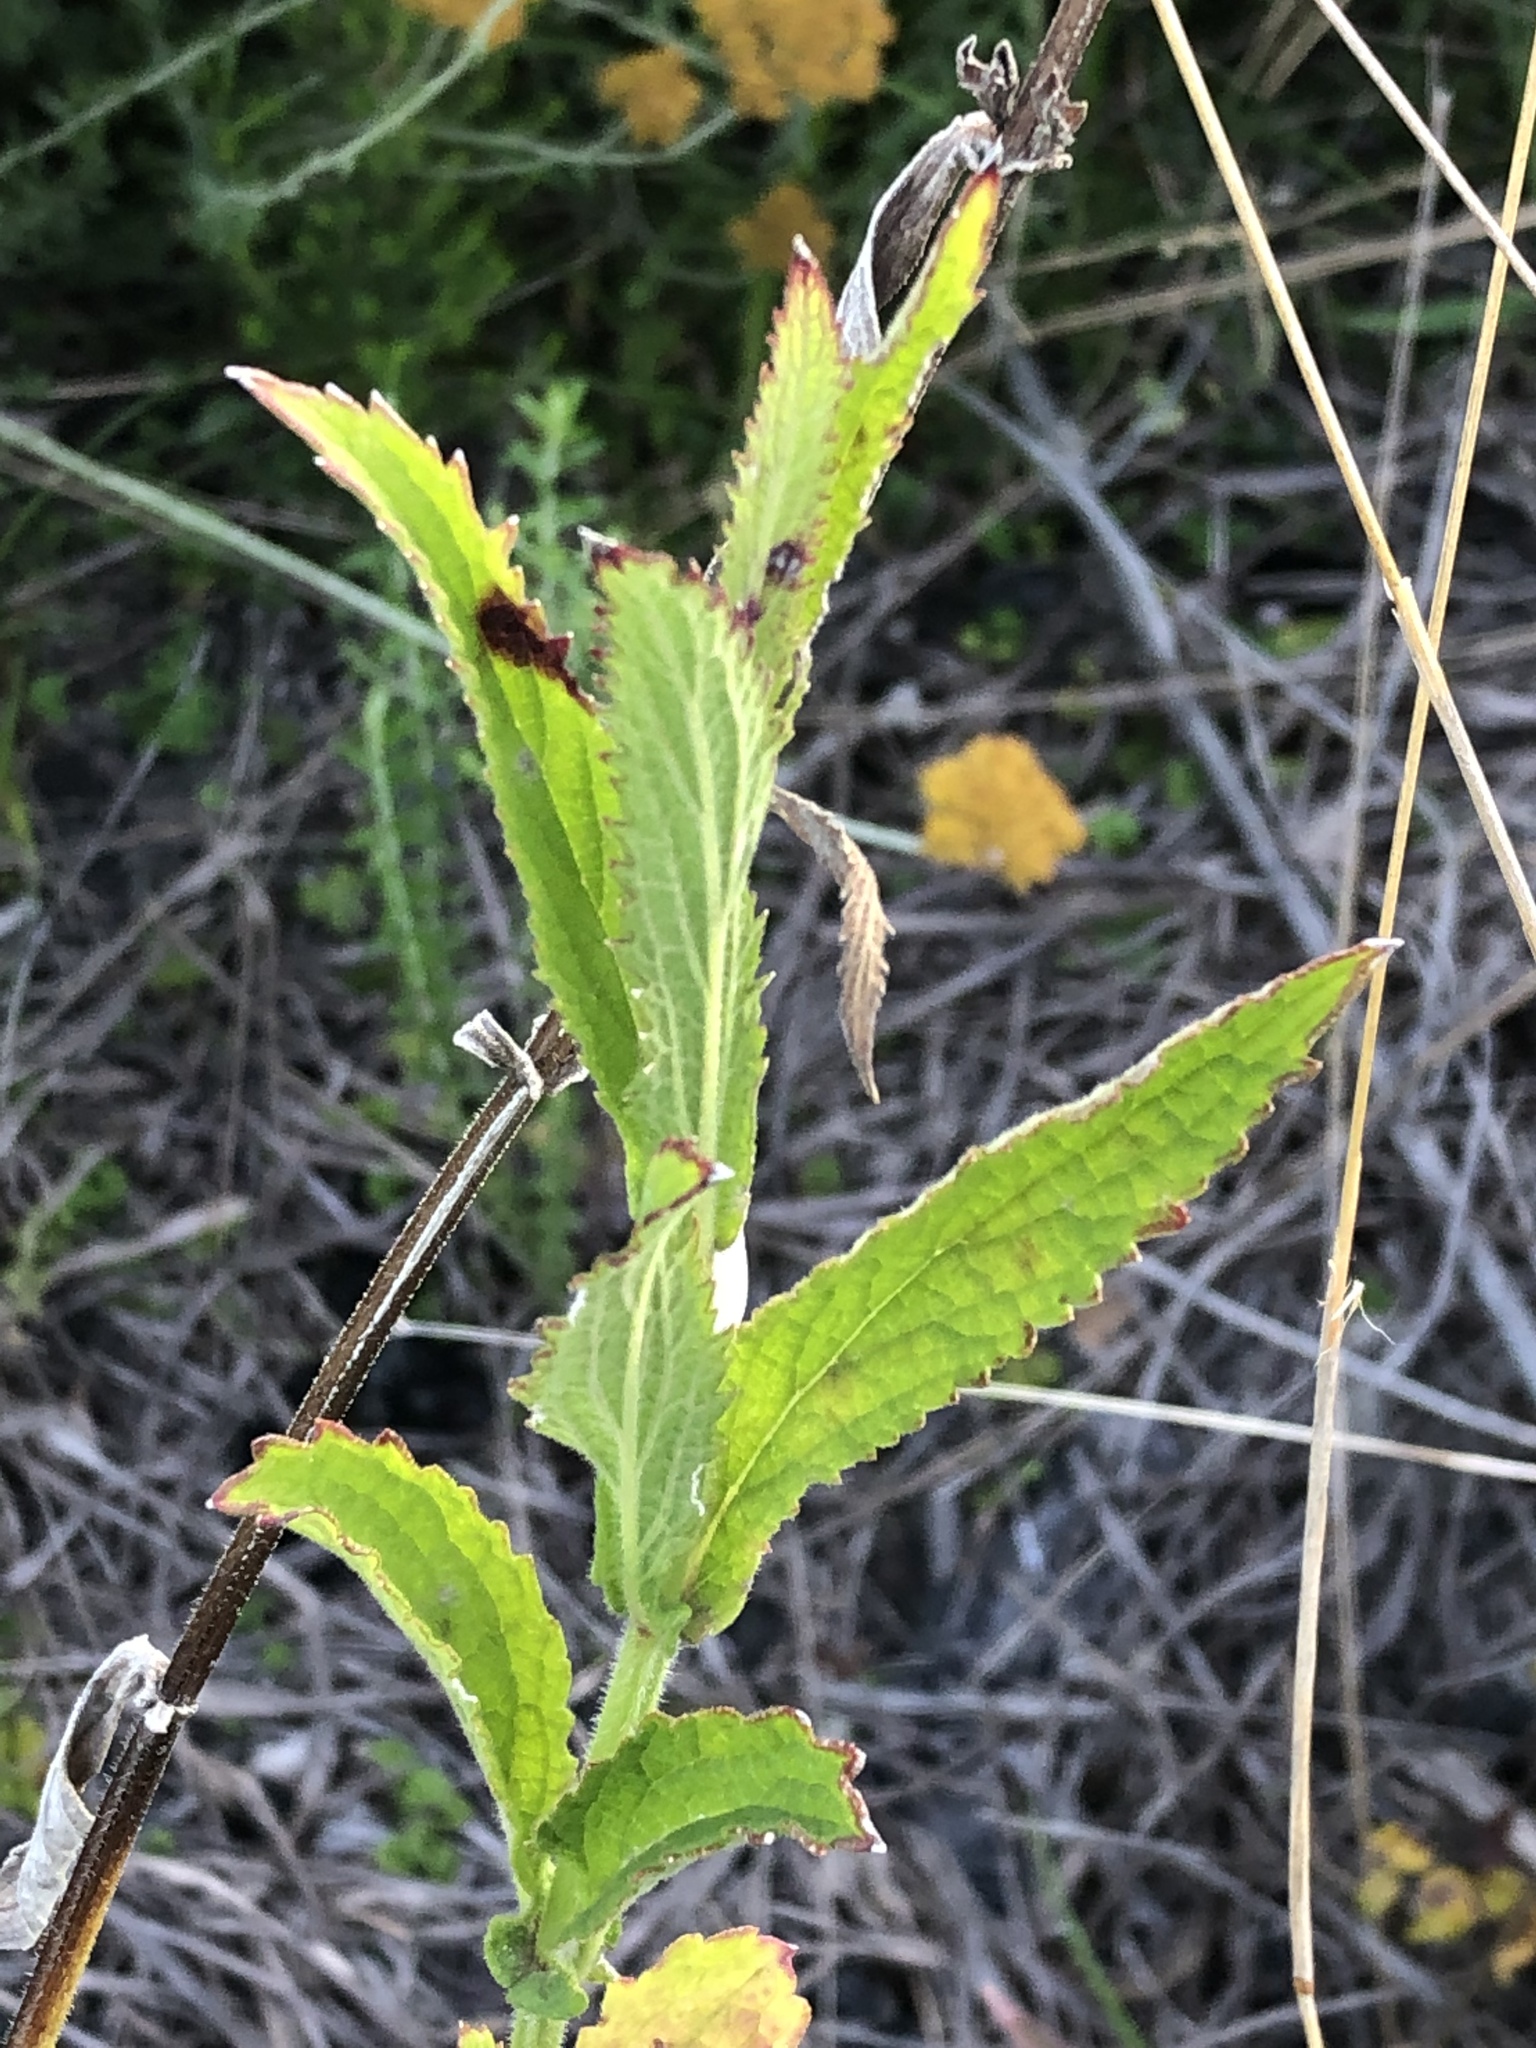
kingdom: Plantae
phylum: Tracheophyta
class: Magnoliopsida
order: Lamiales
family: Verbenaceae
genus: Verbena
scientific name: Verbena bonariensis
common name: Purpletop vervain
